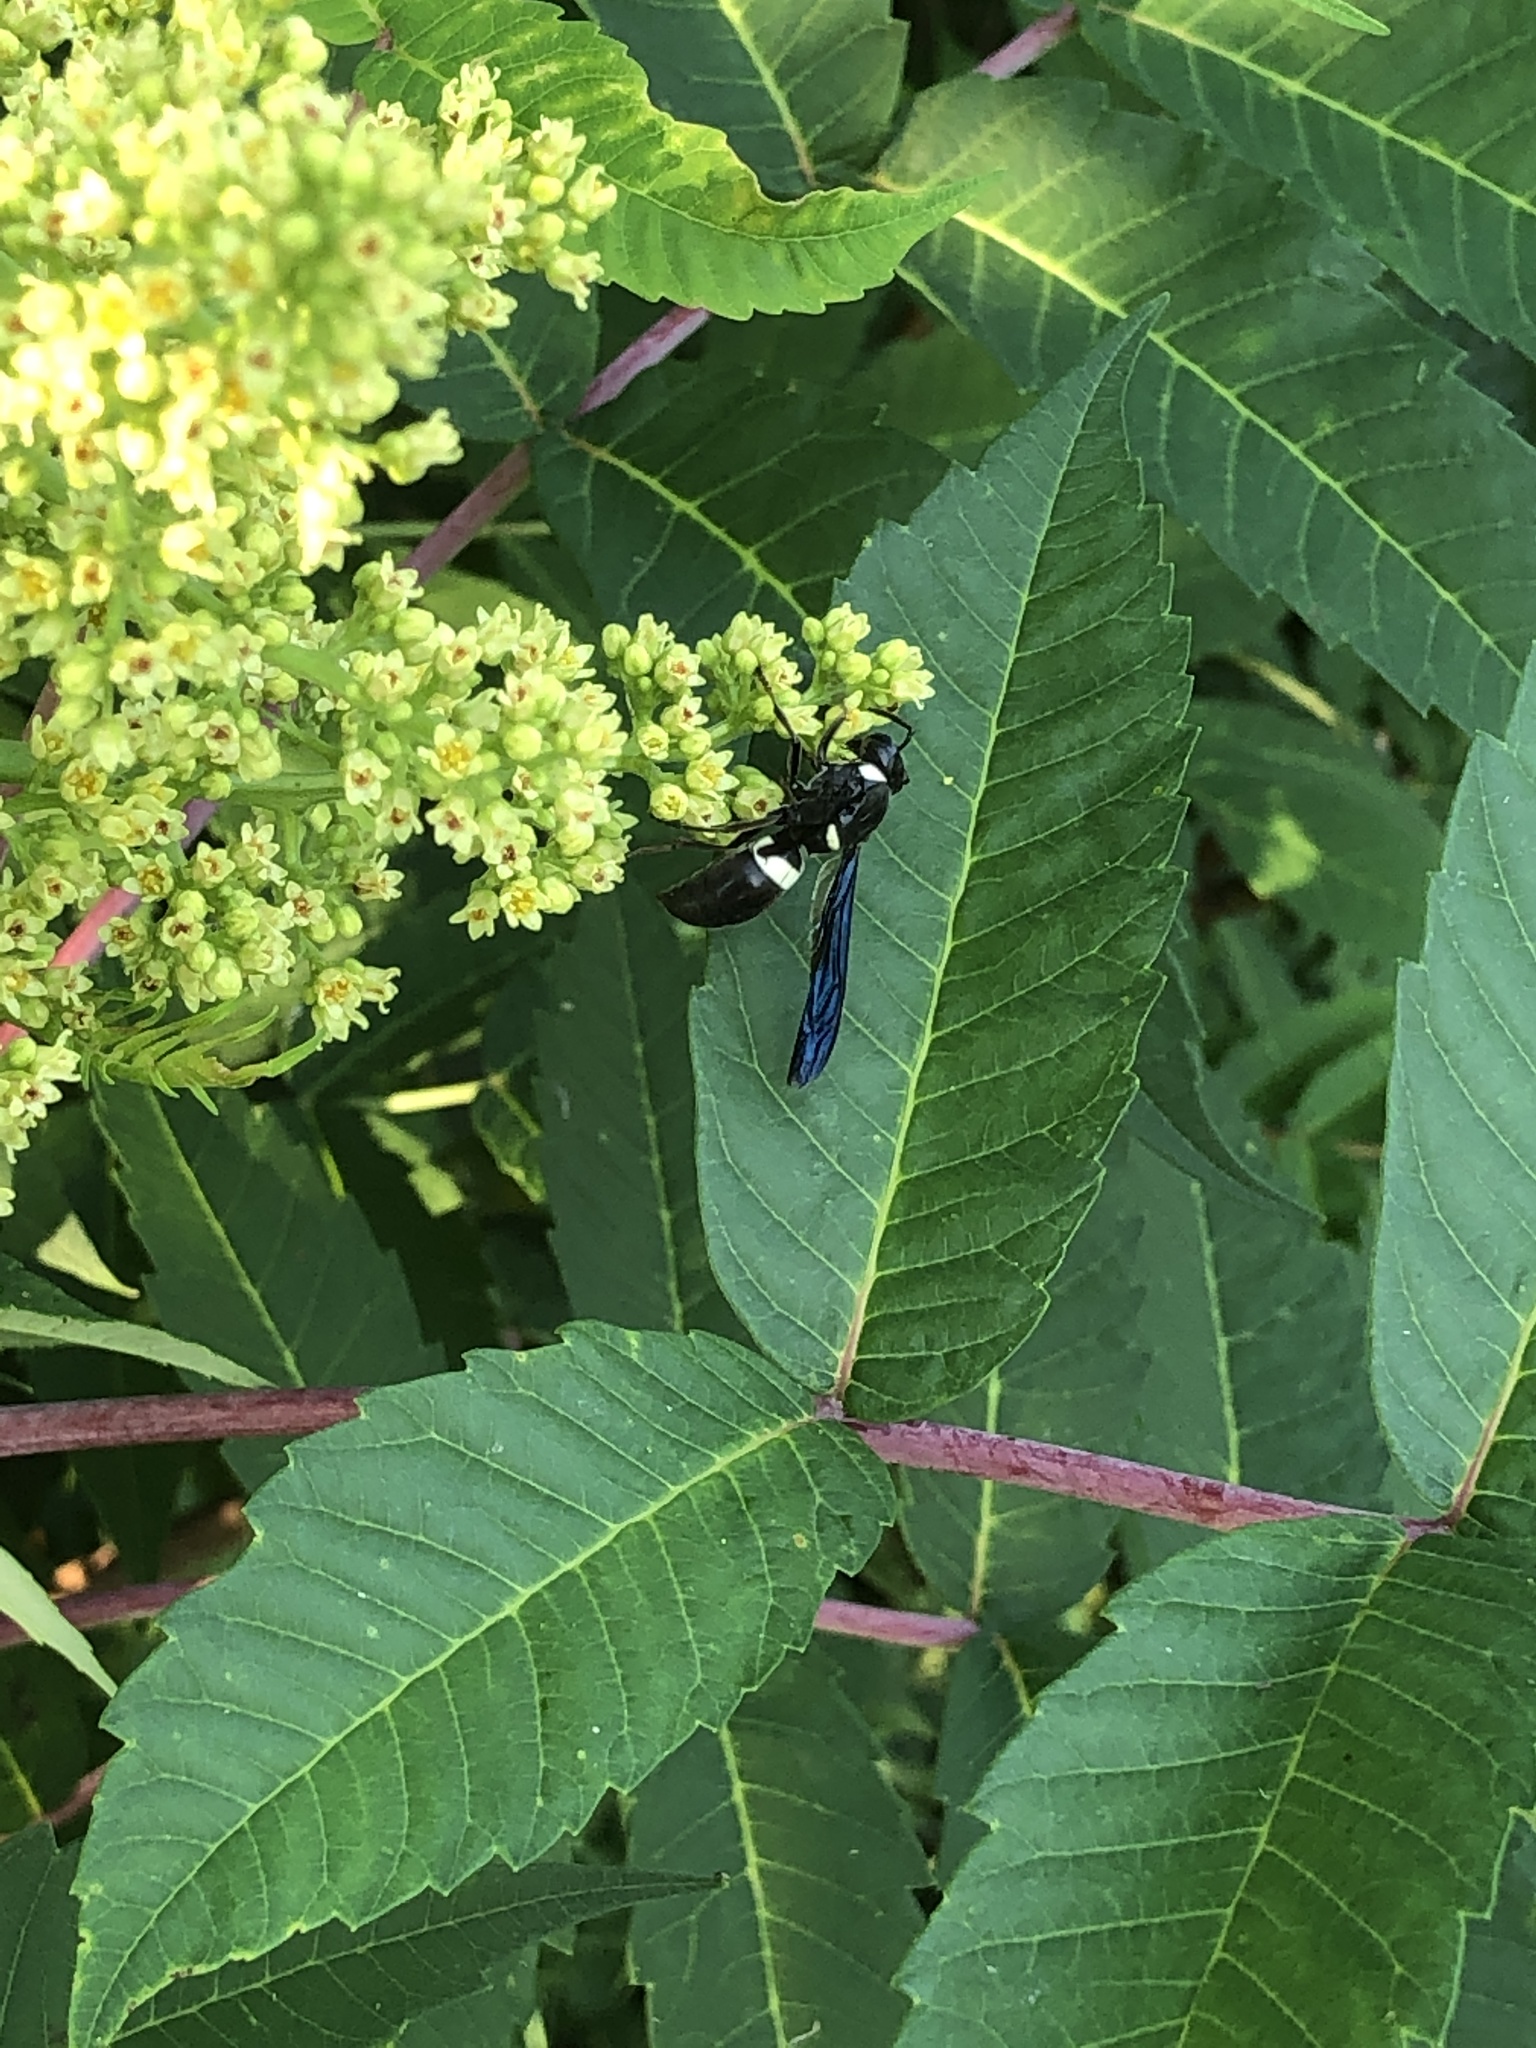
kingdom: Animalia
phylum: Arthropoda
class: Insecta
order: Hymenoptera
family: Eumenidae
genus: Monobia
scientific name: Monobia quadridens
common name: Four-toothed mason wasp
